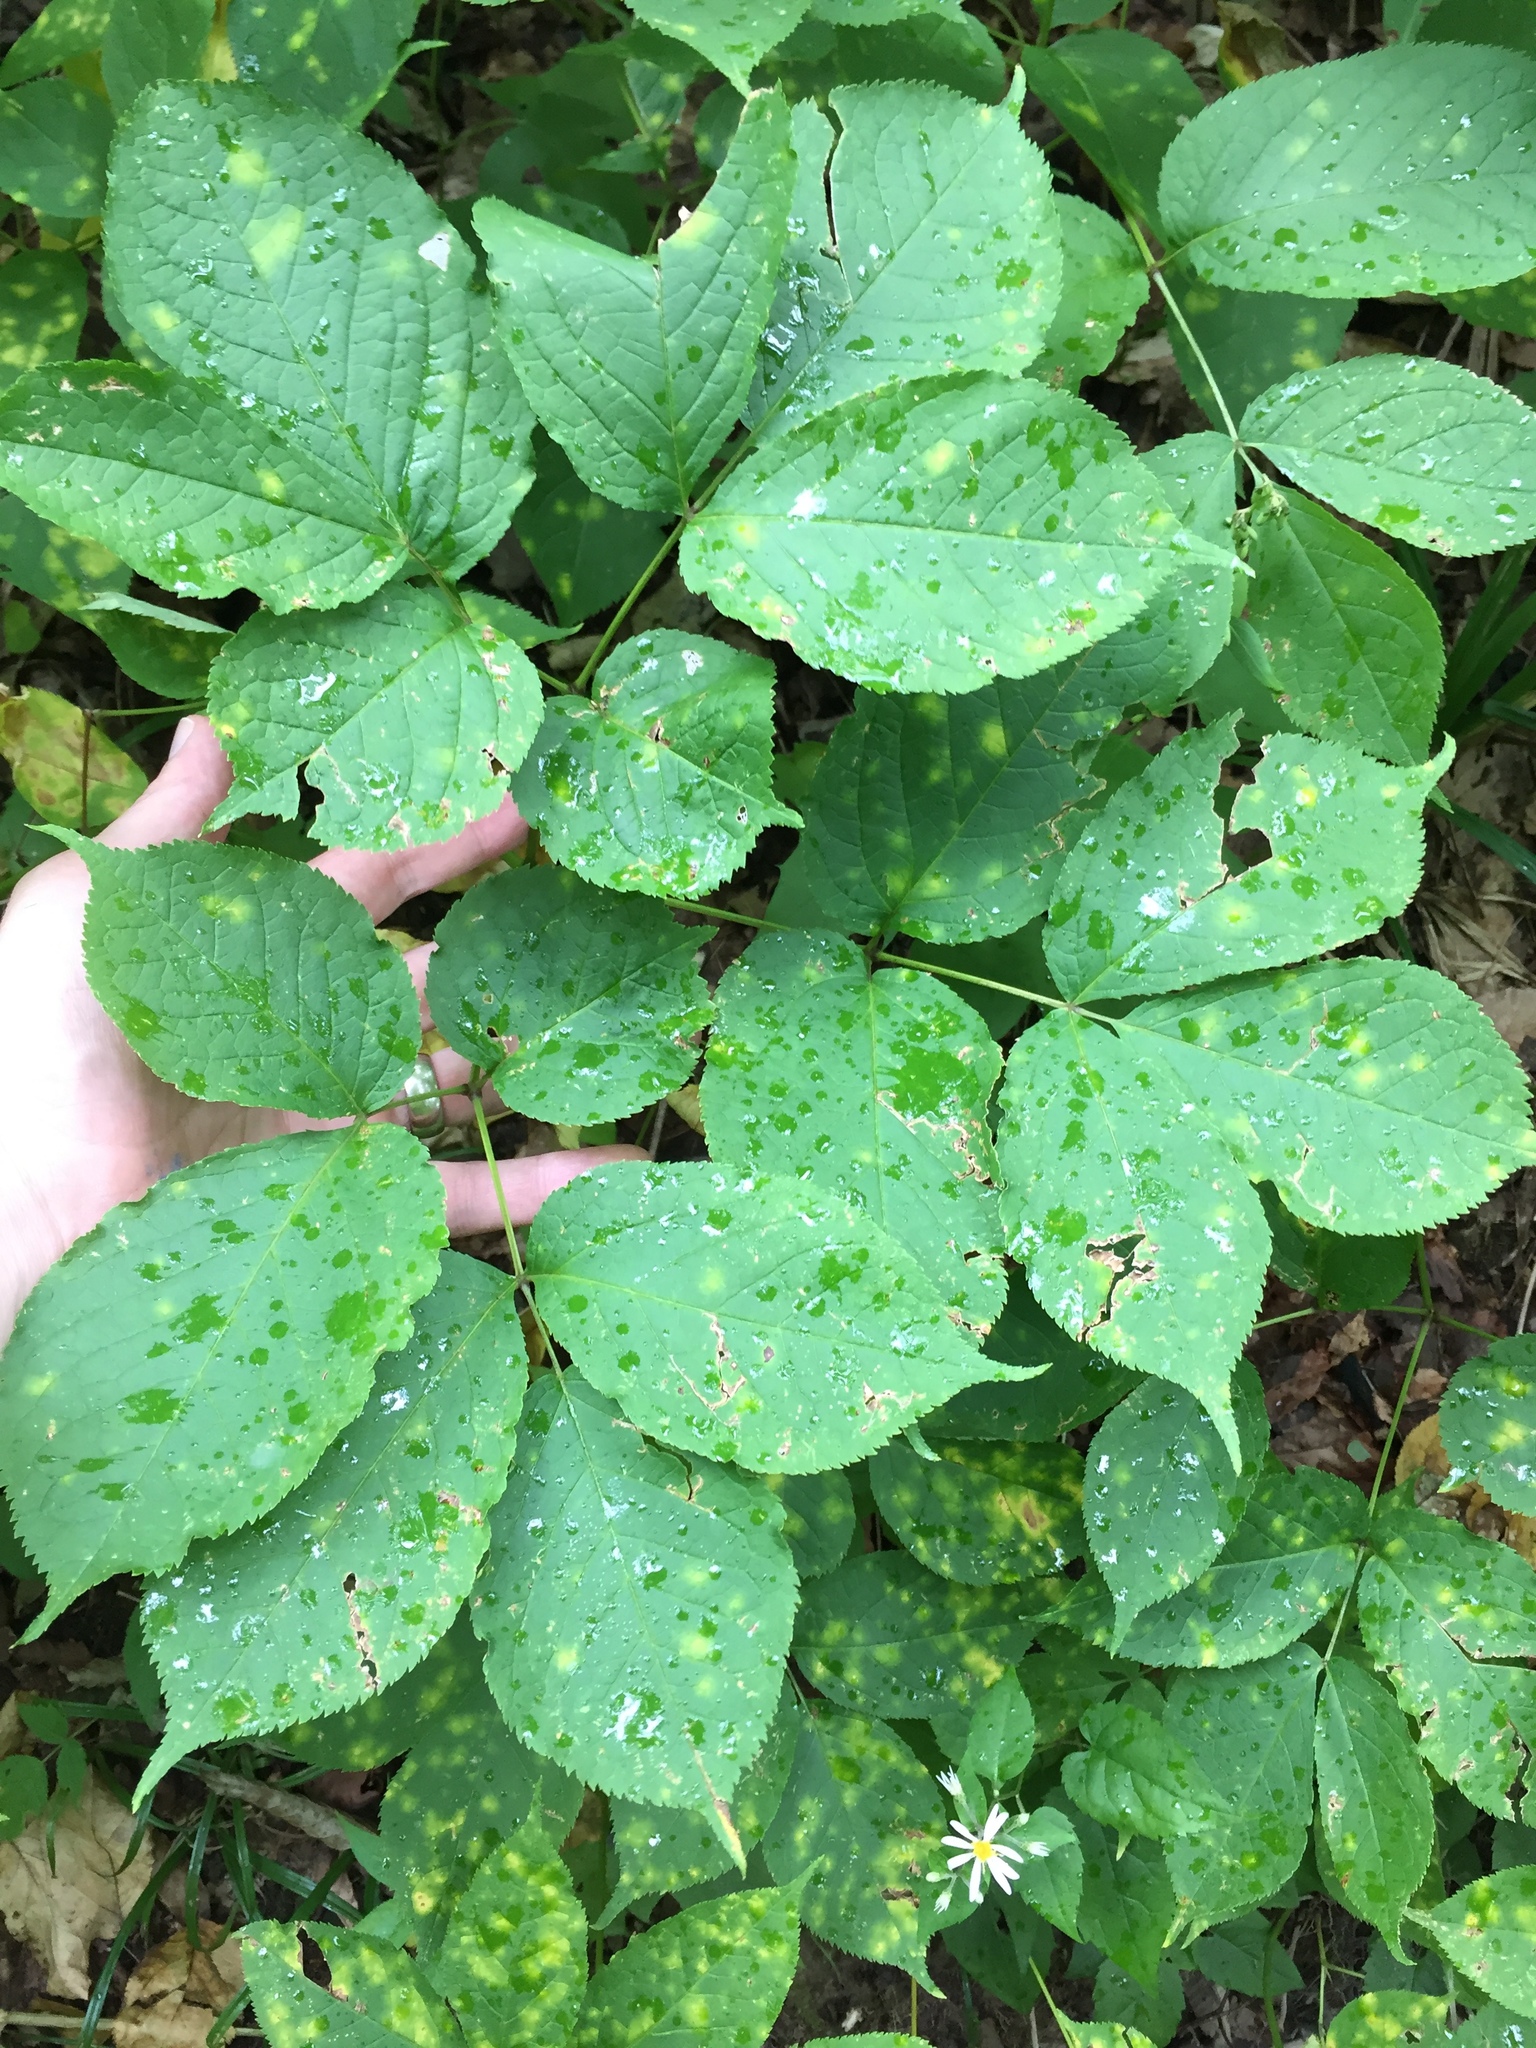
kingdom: Plantae
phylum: Tracheophyta
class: Magnoliopsida
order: Apiales
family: Araliaceae
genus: Aralia
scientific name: Aralia nudicaulis
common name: Wild sarsaparilla
